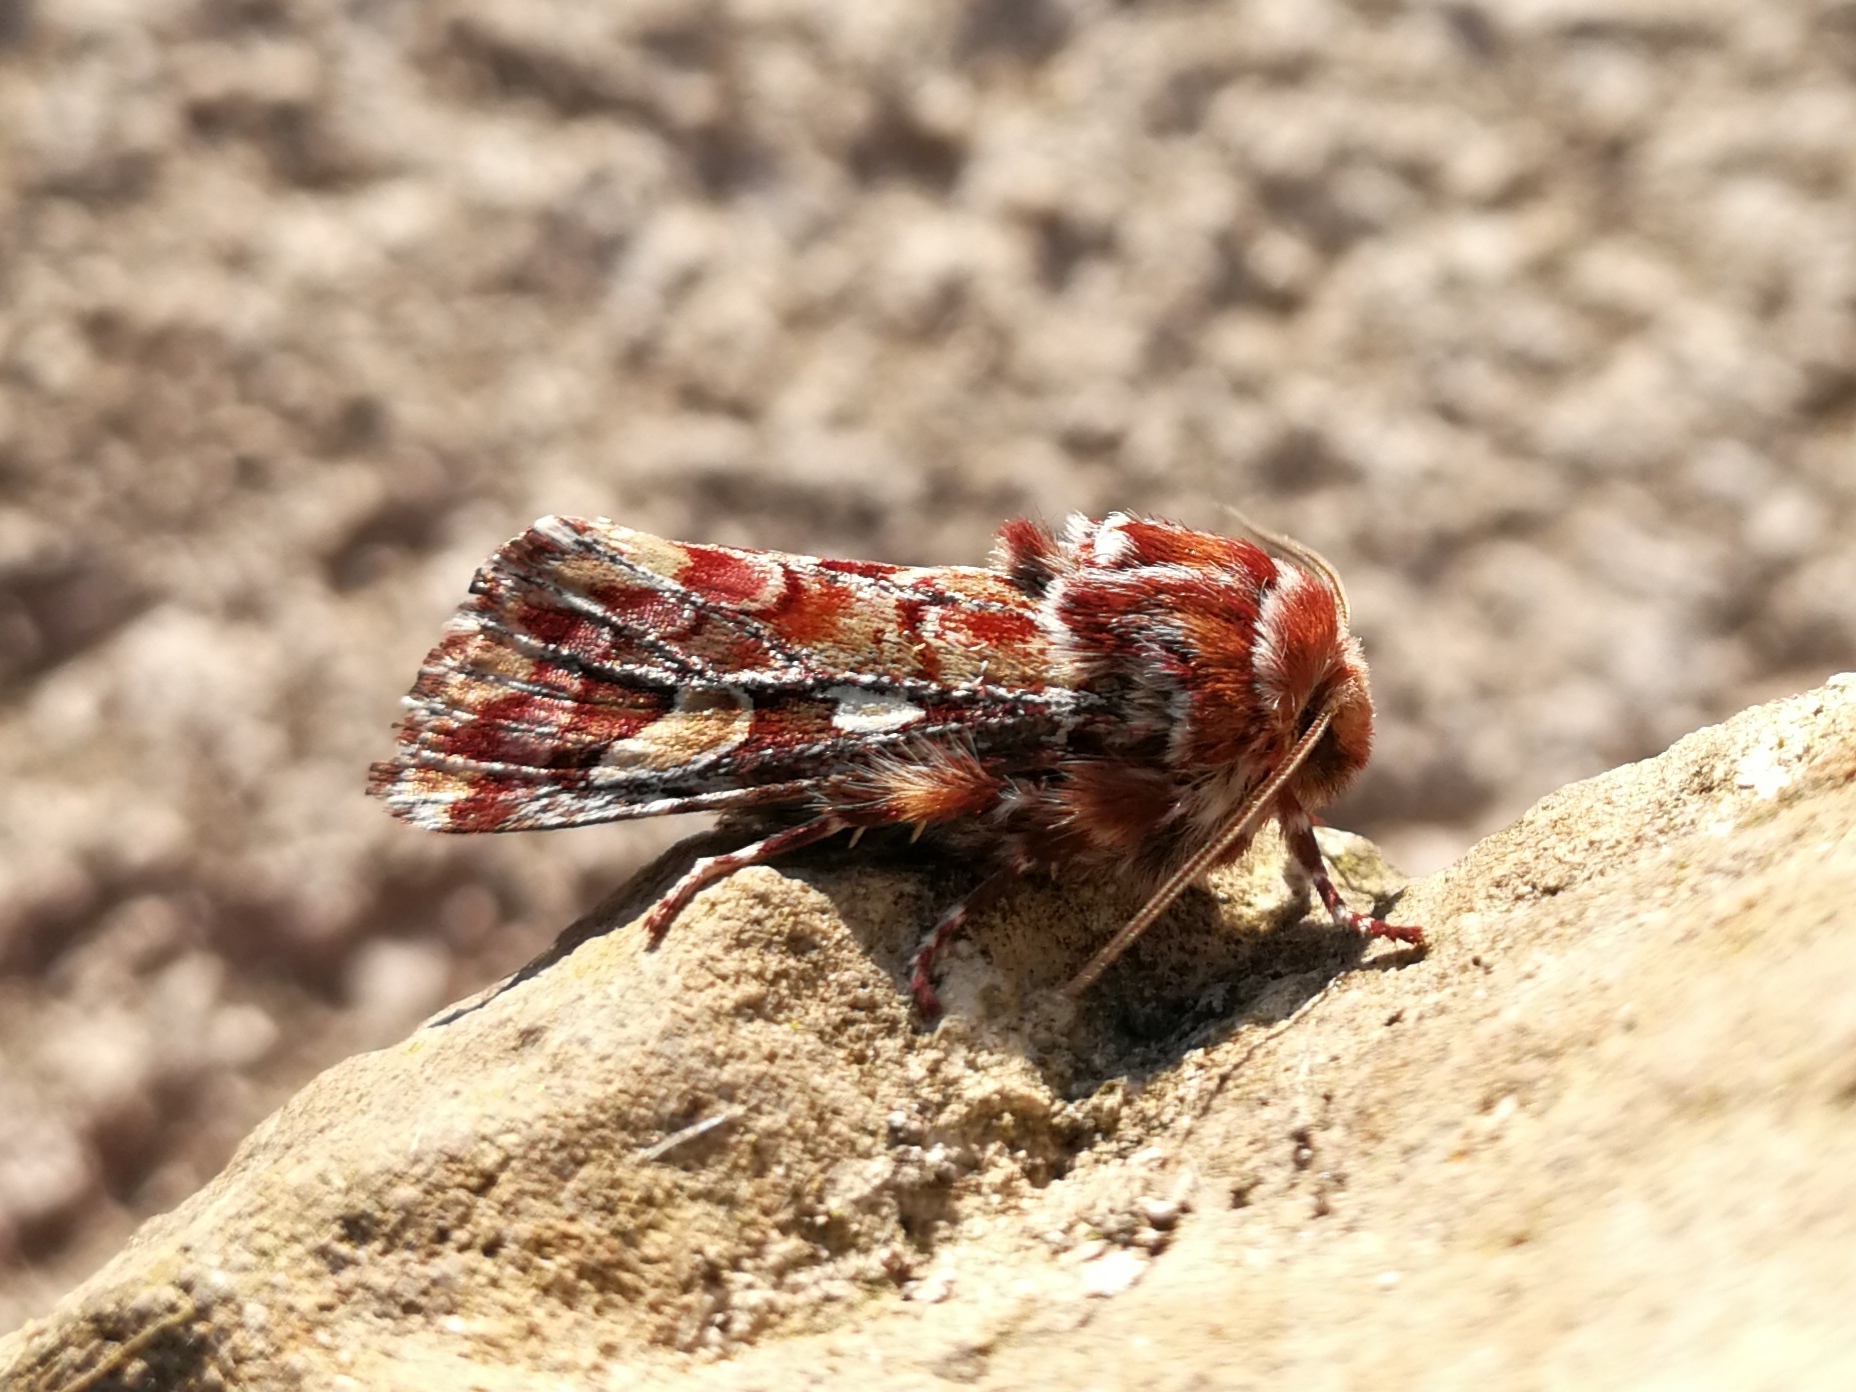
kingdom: Animalia
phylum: Arthropoda
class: Insecta
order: Lepidoptera
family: Noctuidae
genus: Panolis
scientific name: Panolis flammea
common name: Pine beauty
